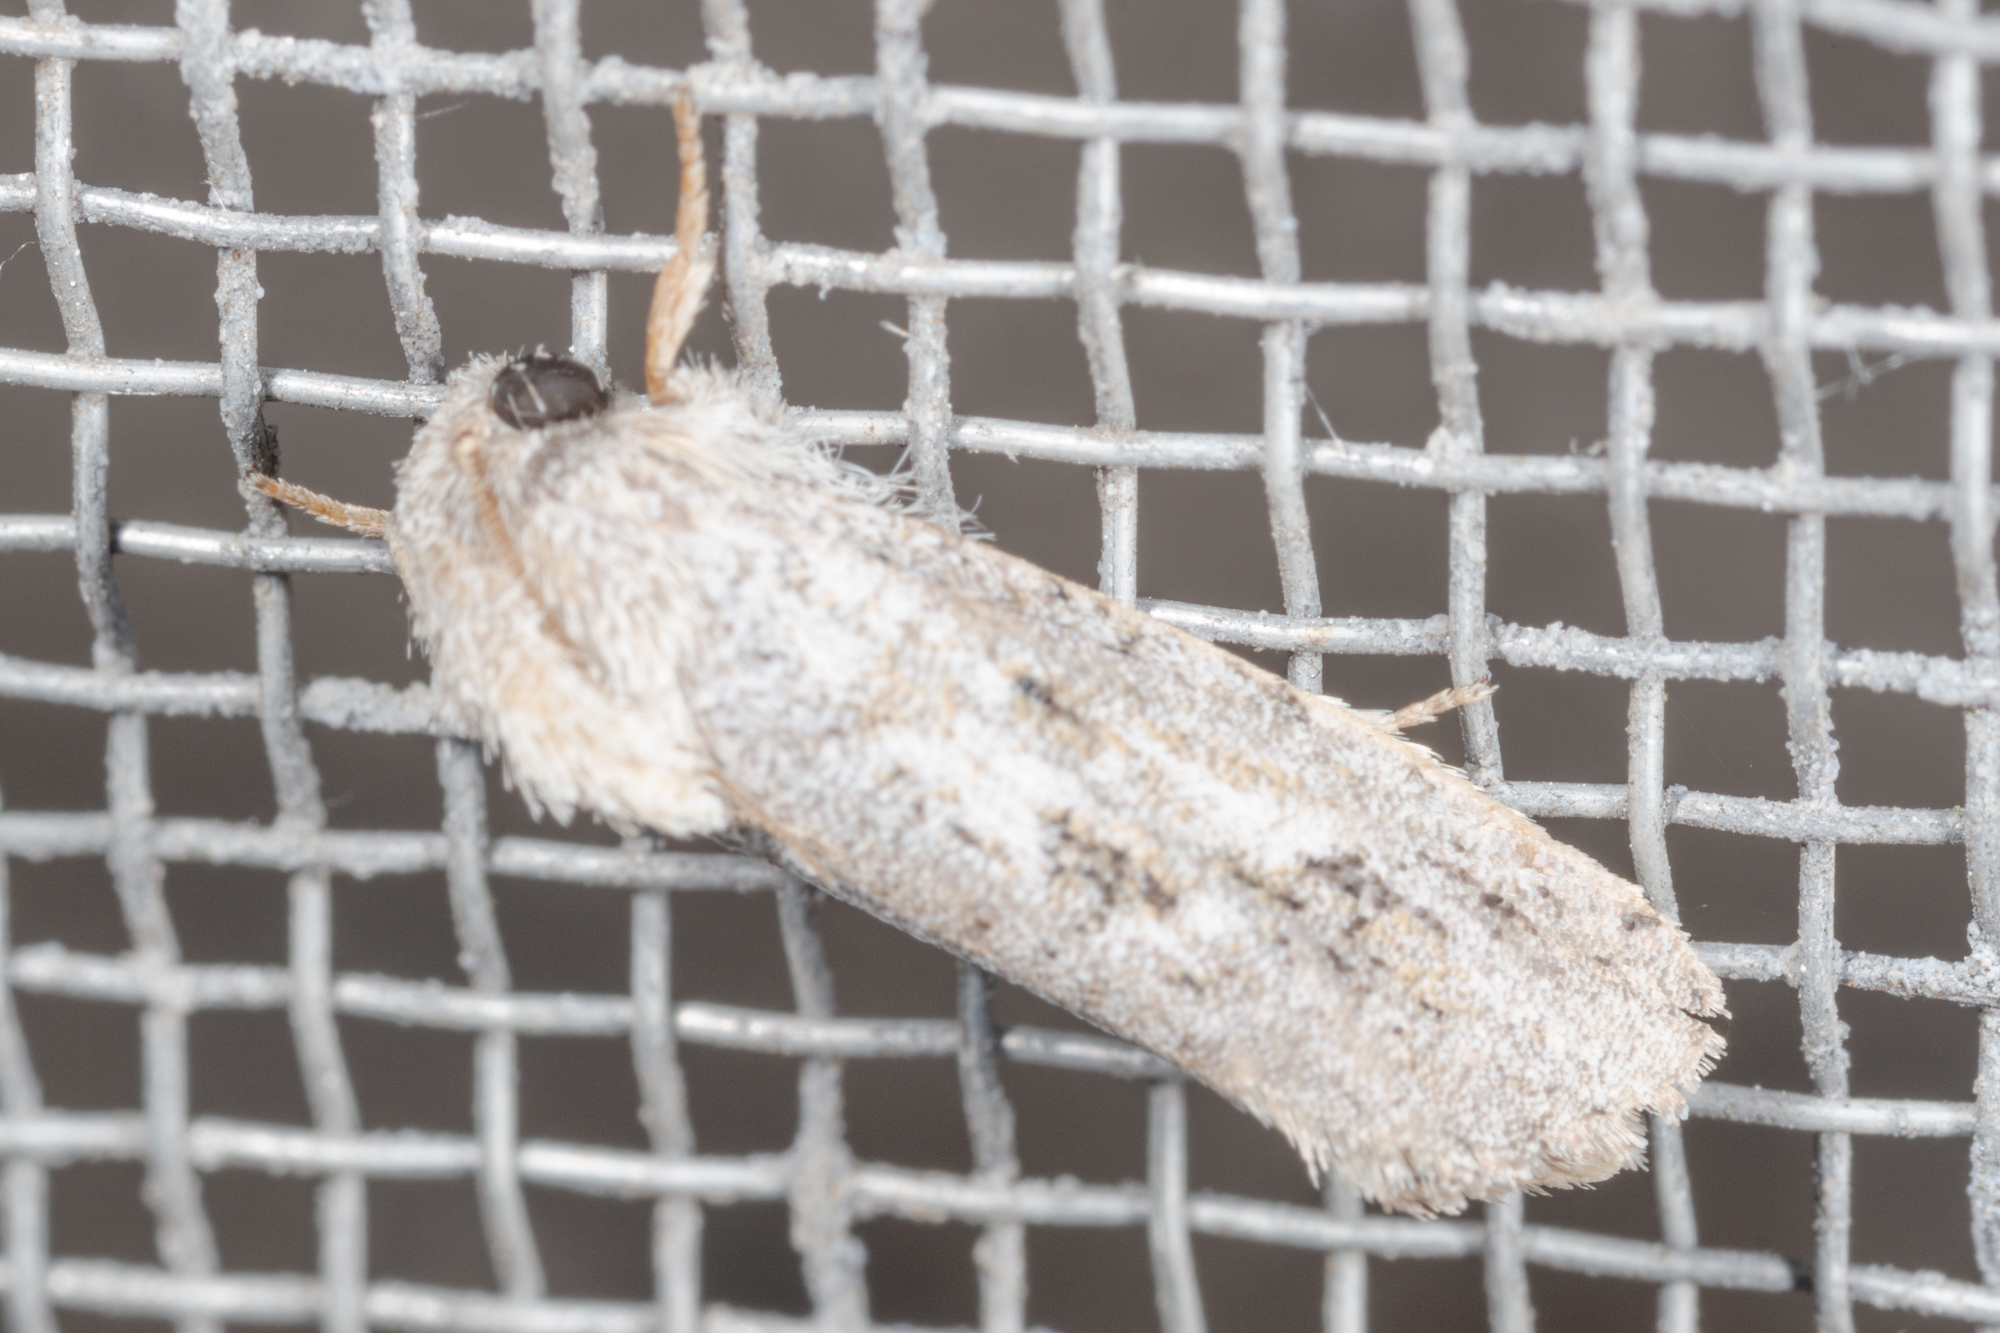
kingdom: Animalia
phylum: Arthropoda
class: Insecta
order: Lepidoptera
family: Tineidae
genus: Acrolophus
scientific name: Acrolophus griseus
